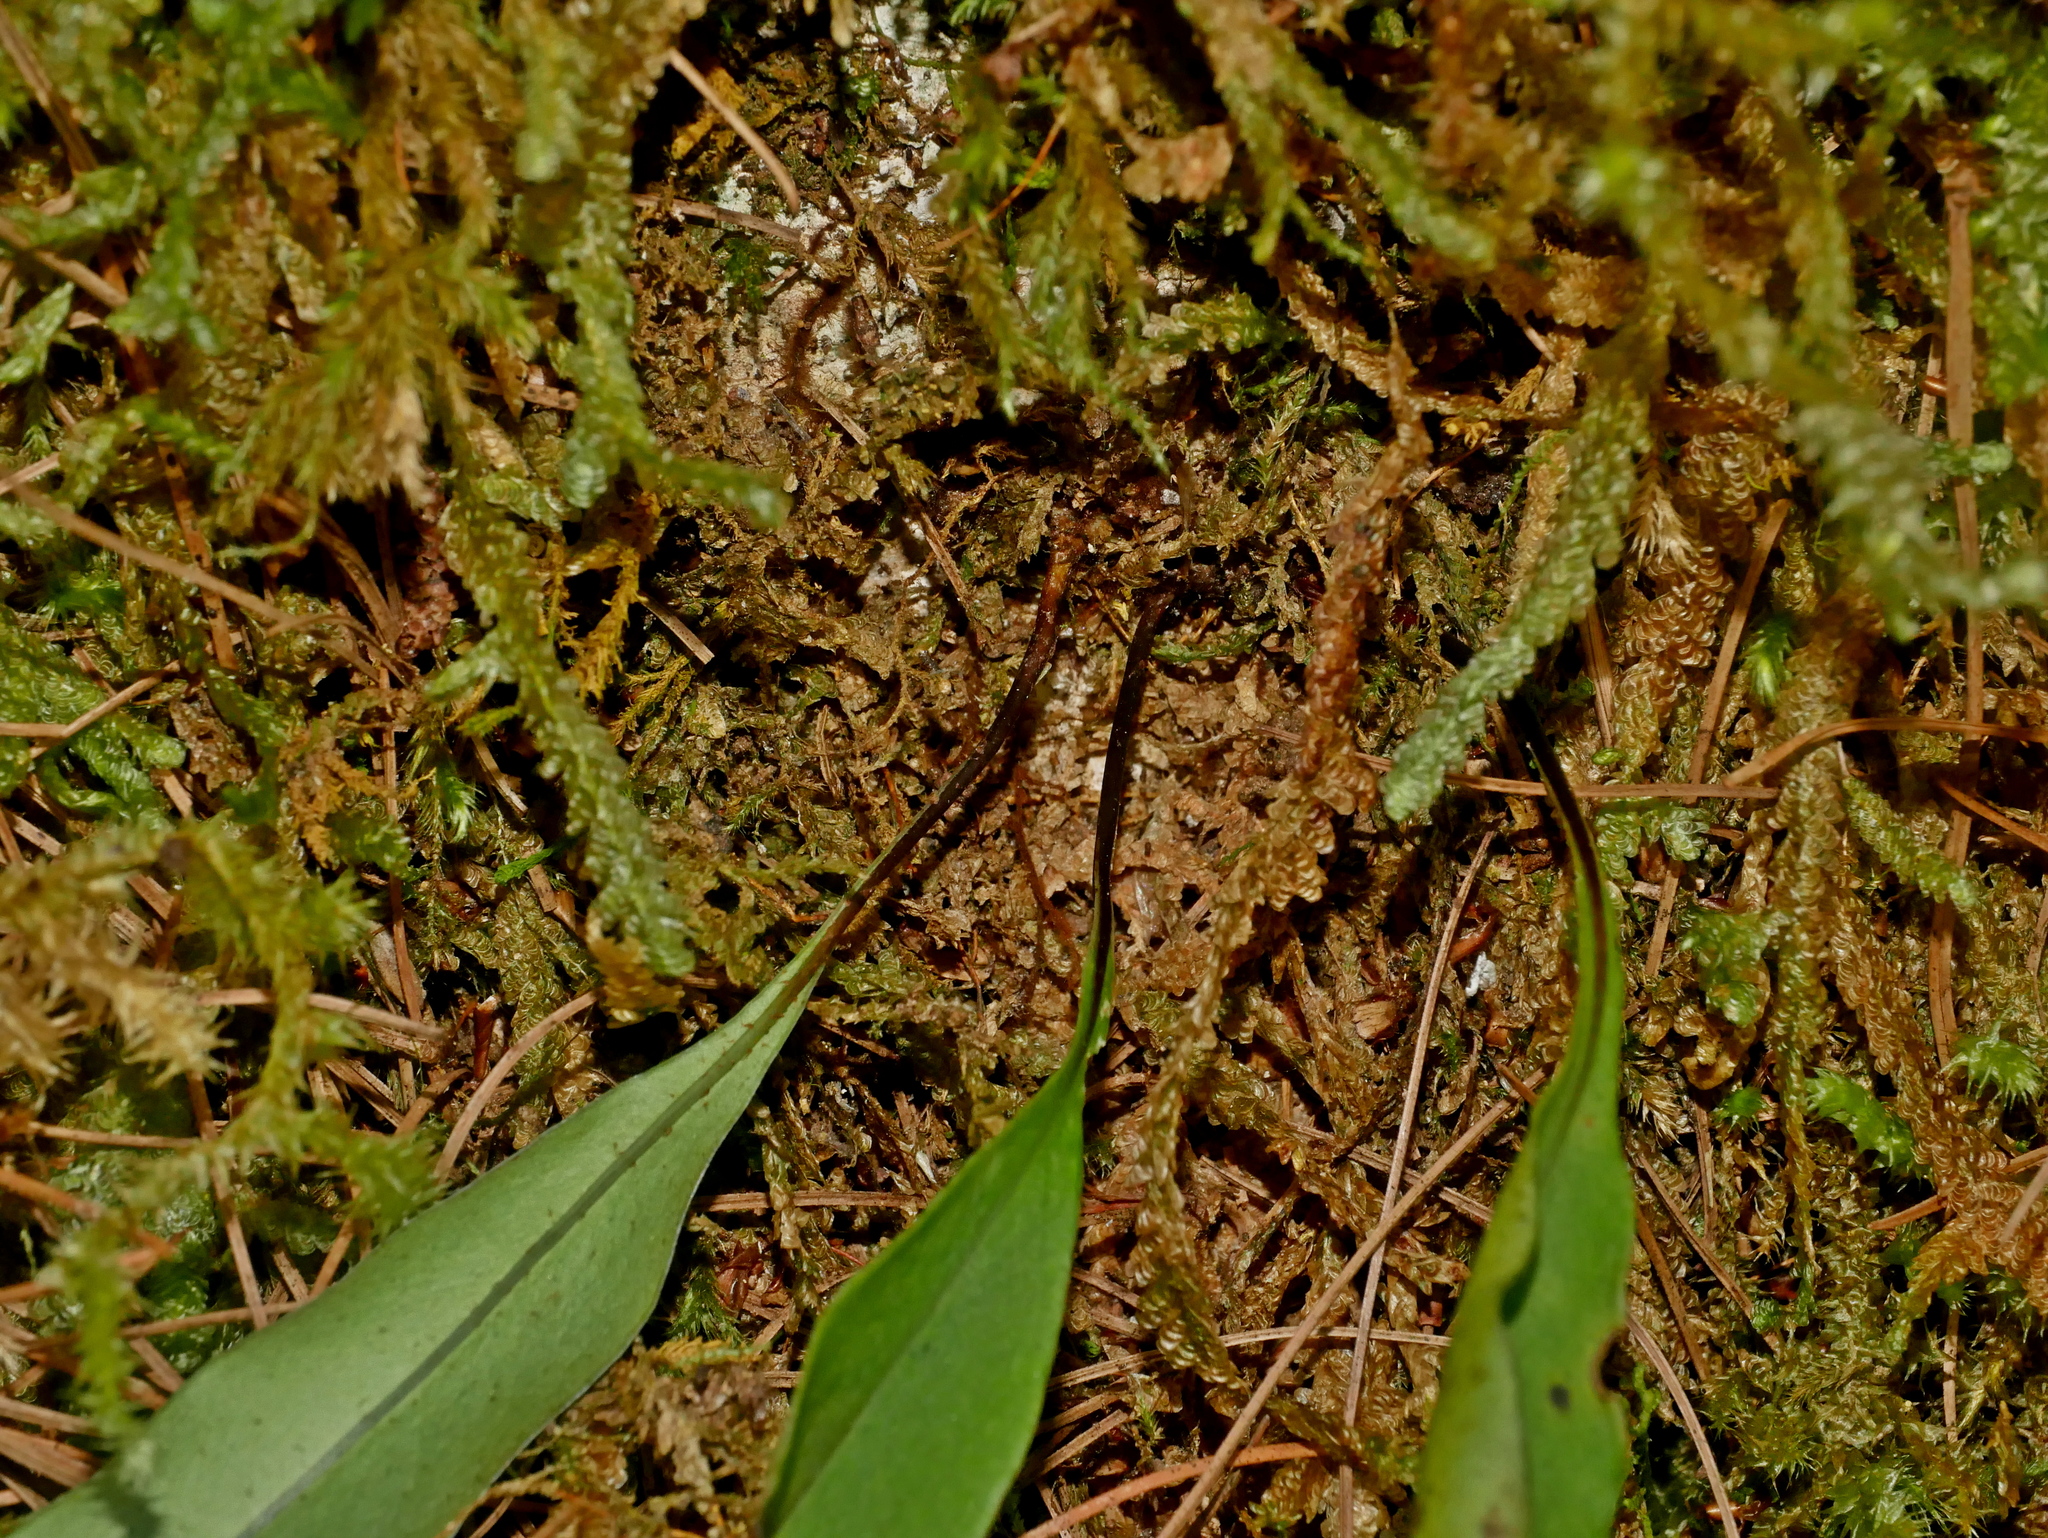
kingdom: Plantae
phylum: Tracheophyta
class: Polypodiopsida
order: Polypodiales
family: Polypodiaceae
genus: Lepisorus
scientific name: Lepisorus megasorus
